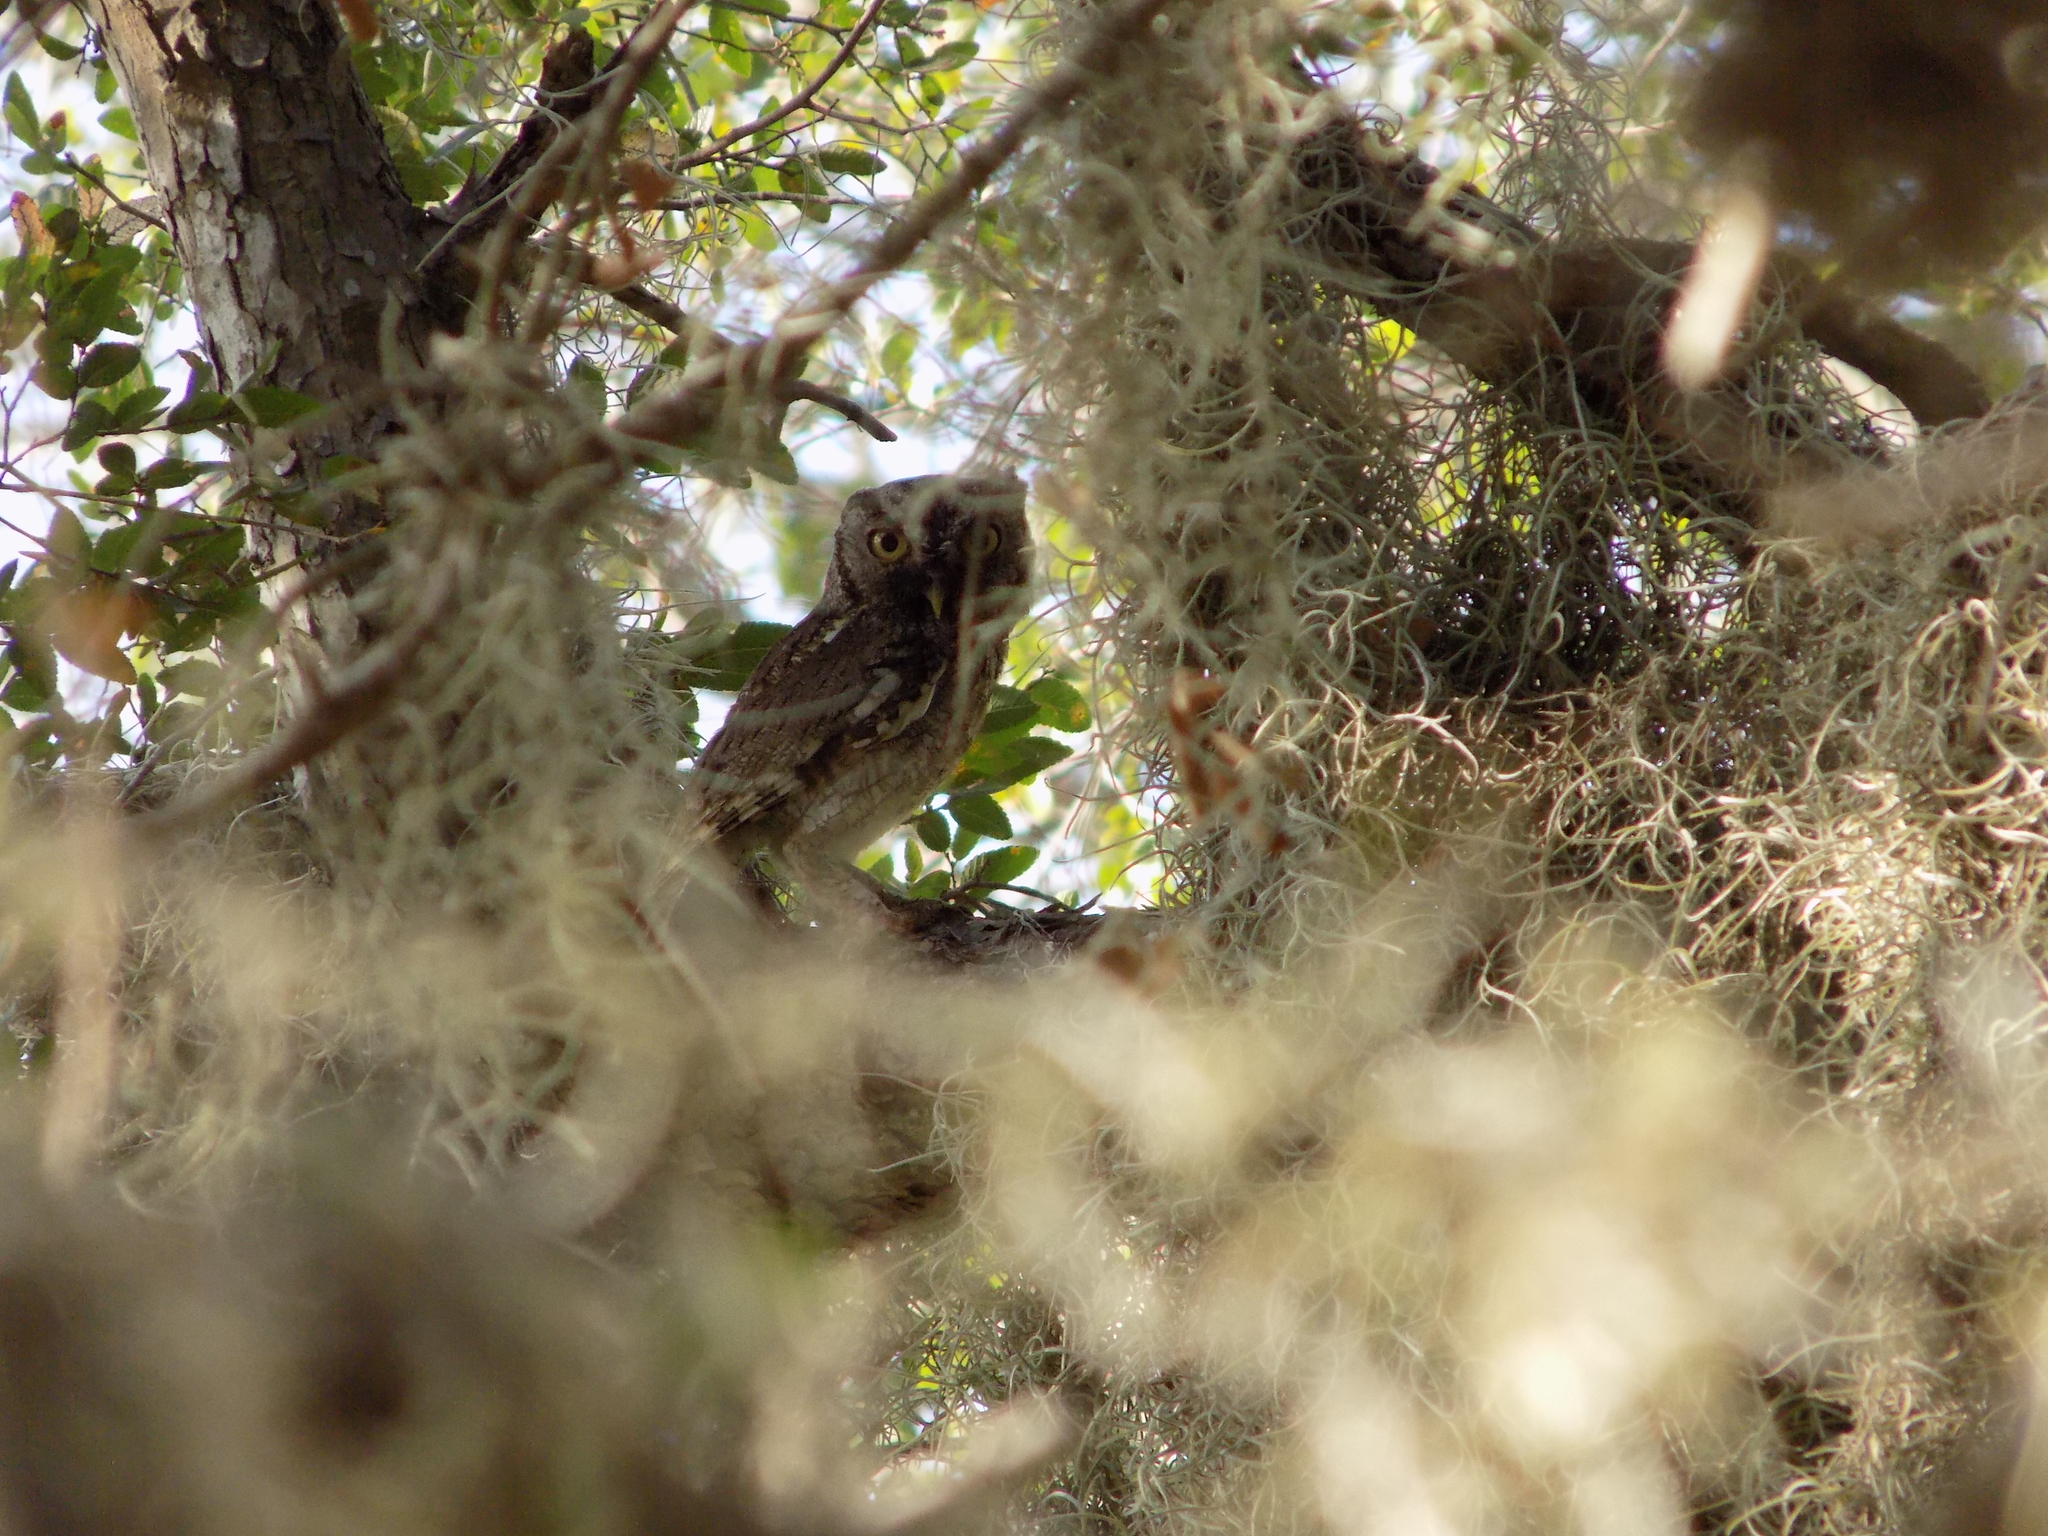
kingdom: Animalia
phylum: Chordata
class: Aves
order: Strigiformes
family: Strigidae
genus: Megascops
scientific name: Megascops asio
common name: Eastern screech-owl
